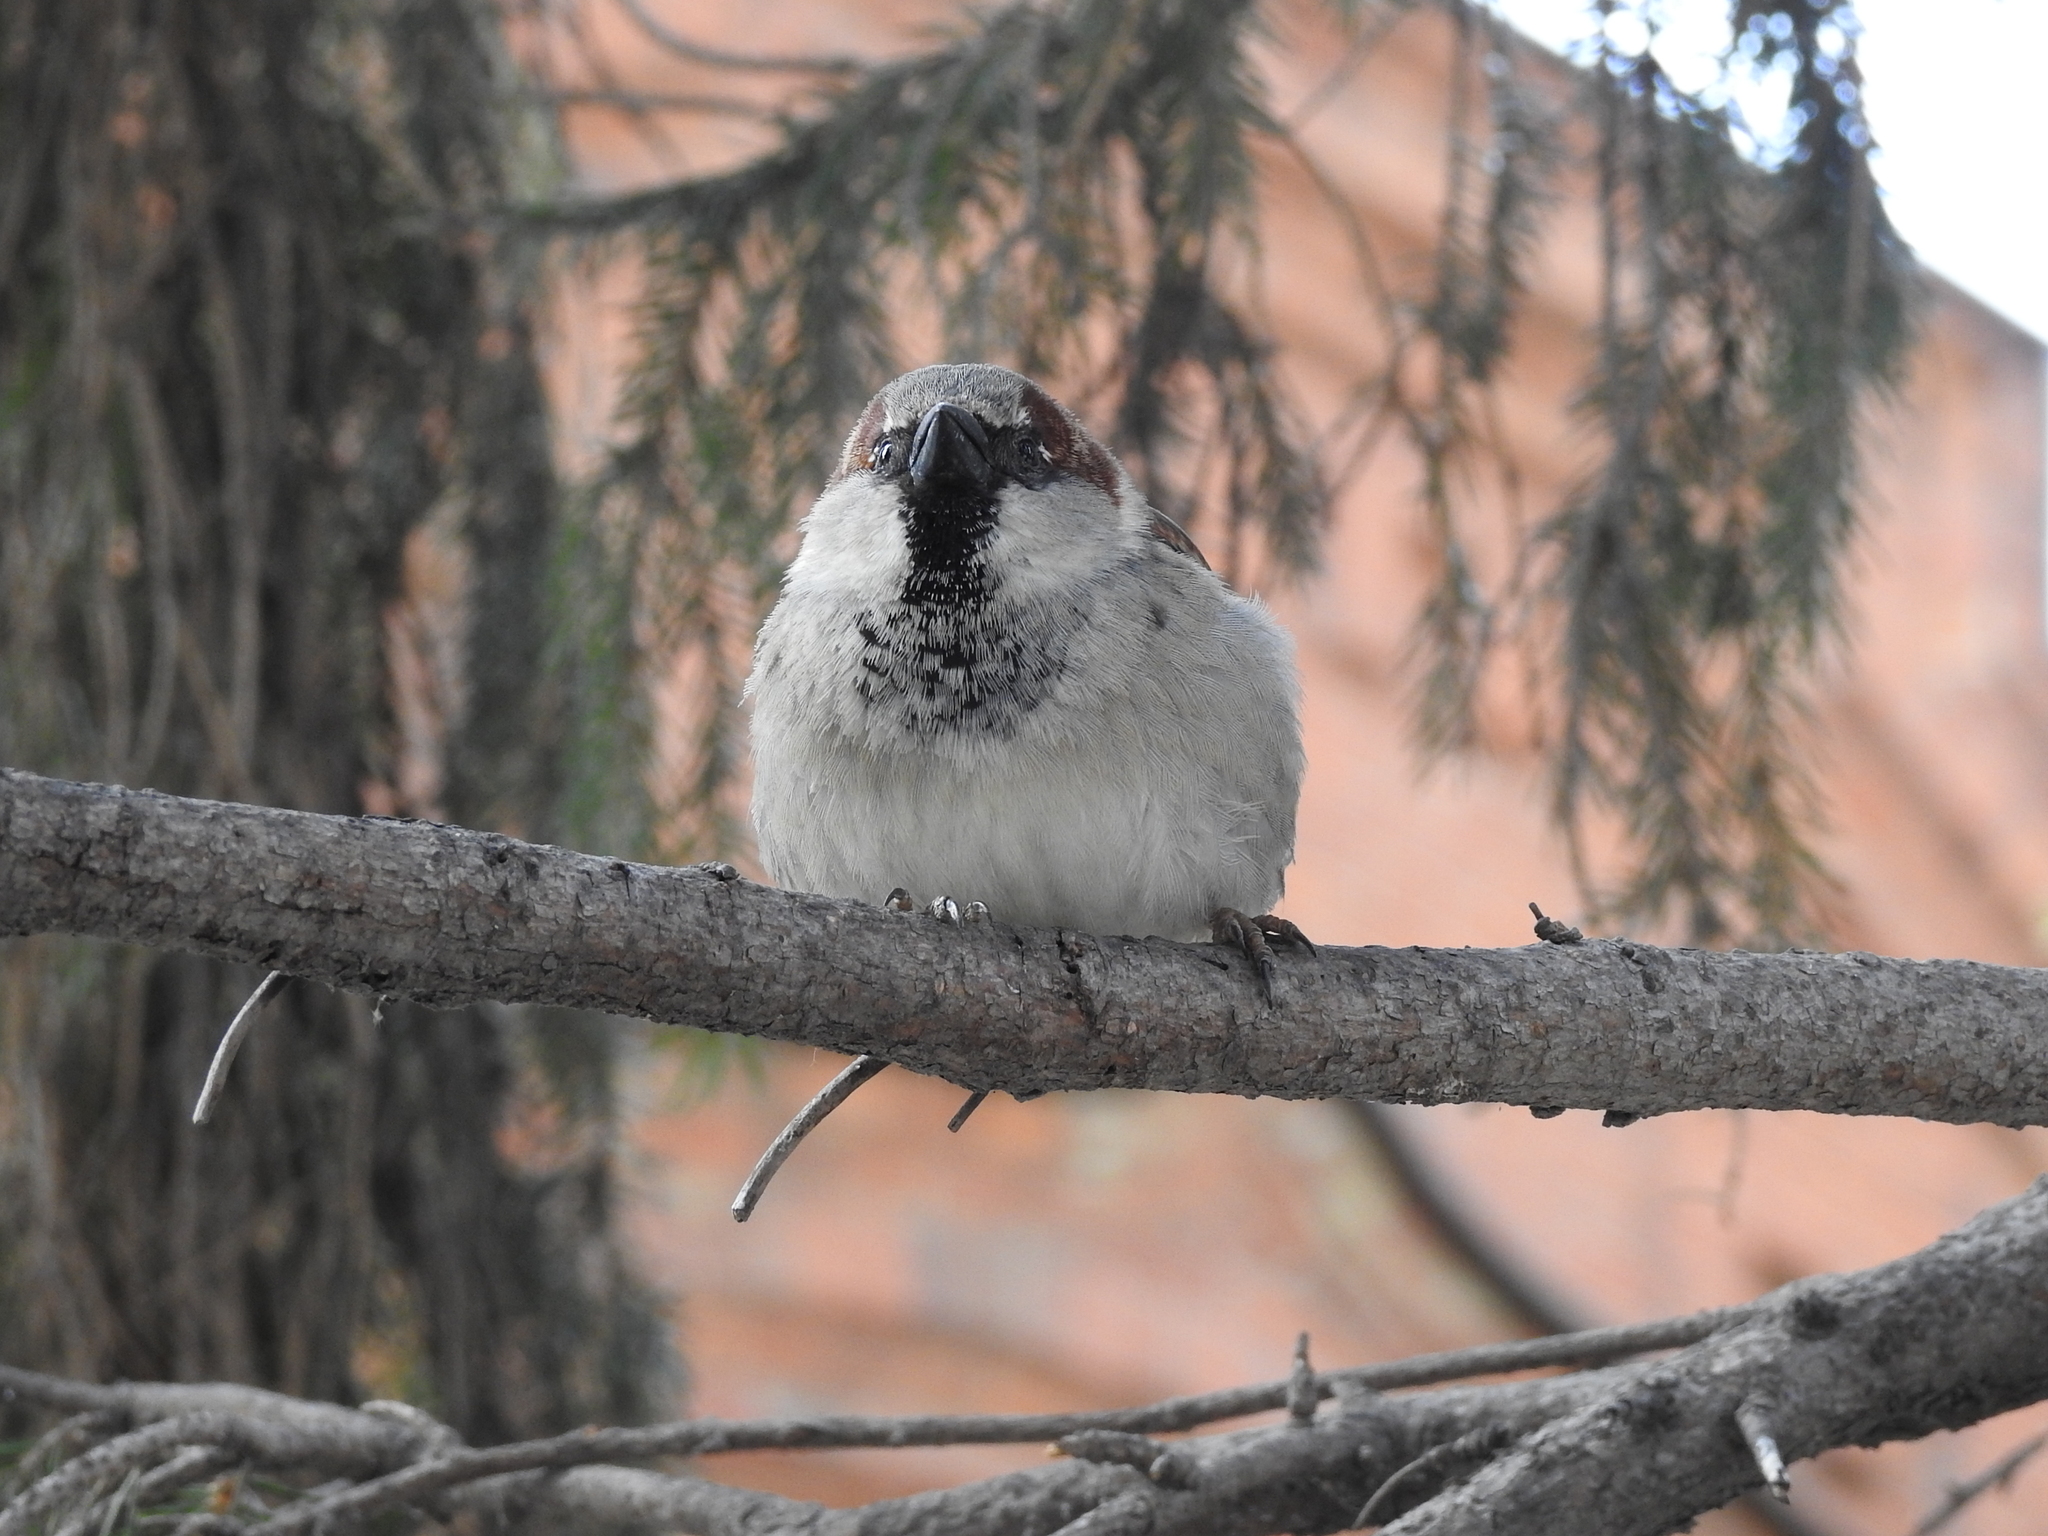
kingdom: Animalia
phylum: Chordata
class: Aves
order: Passeriformes
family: Passeridae
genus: Passer
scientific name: Passer domesticus
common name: House sparrow
